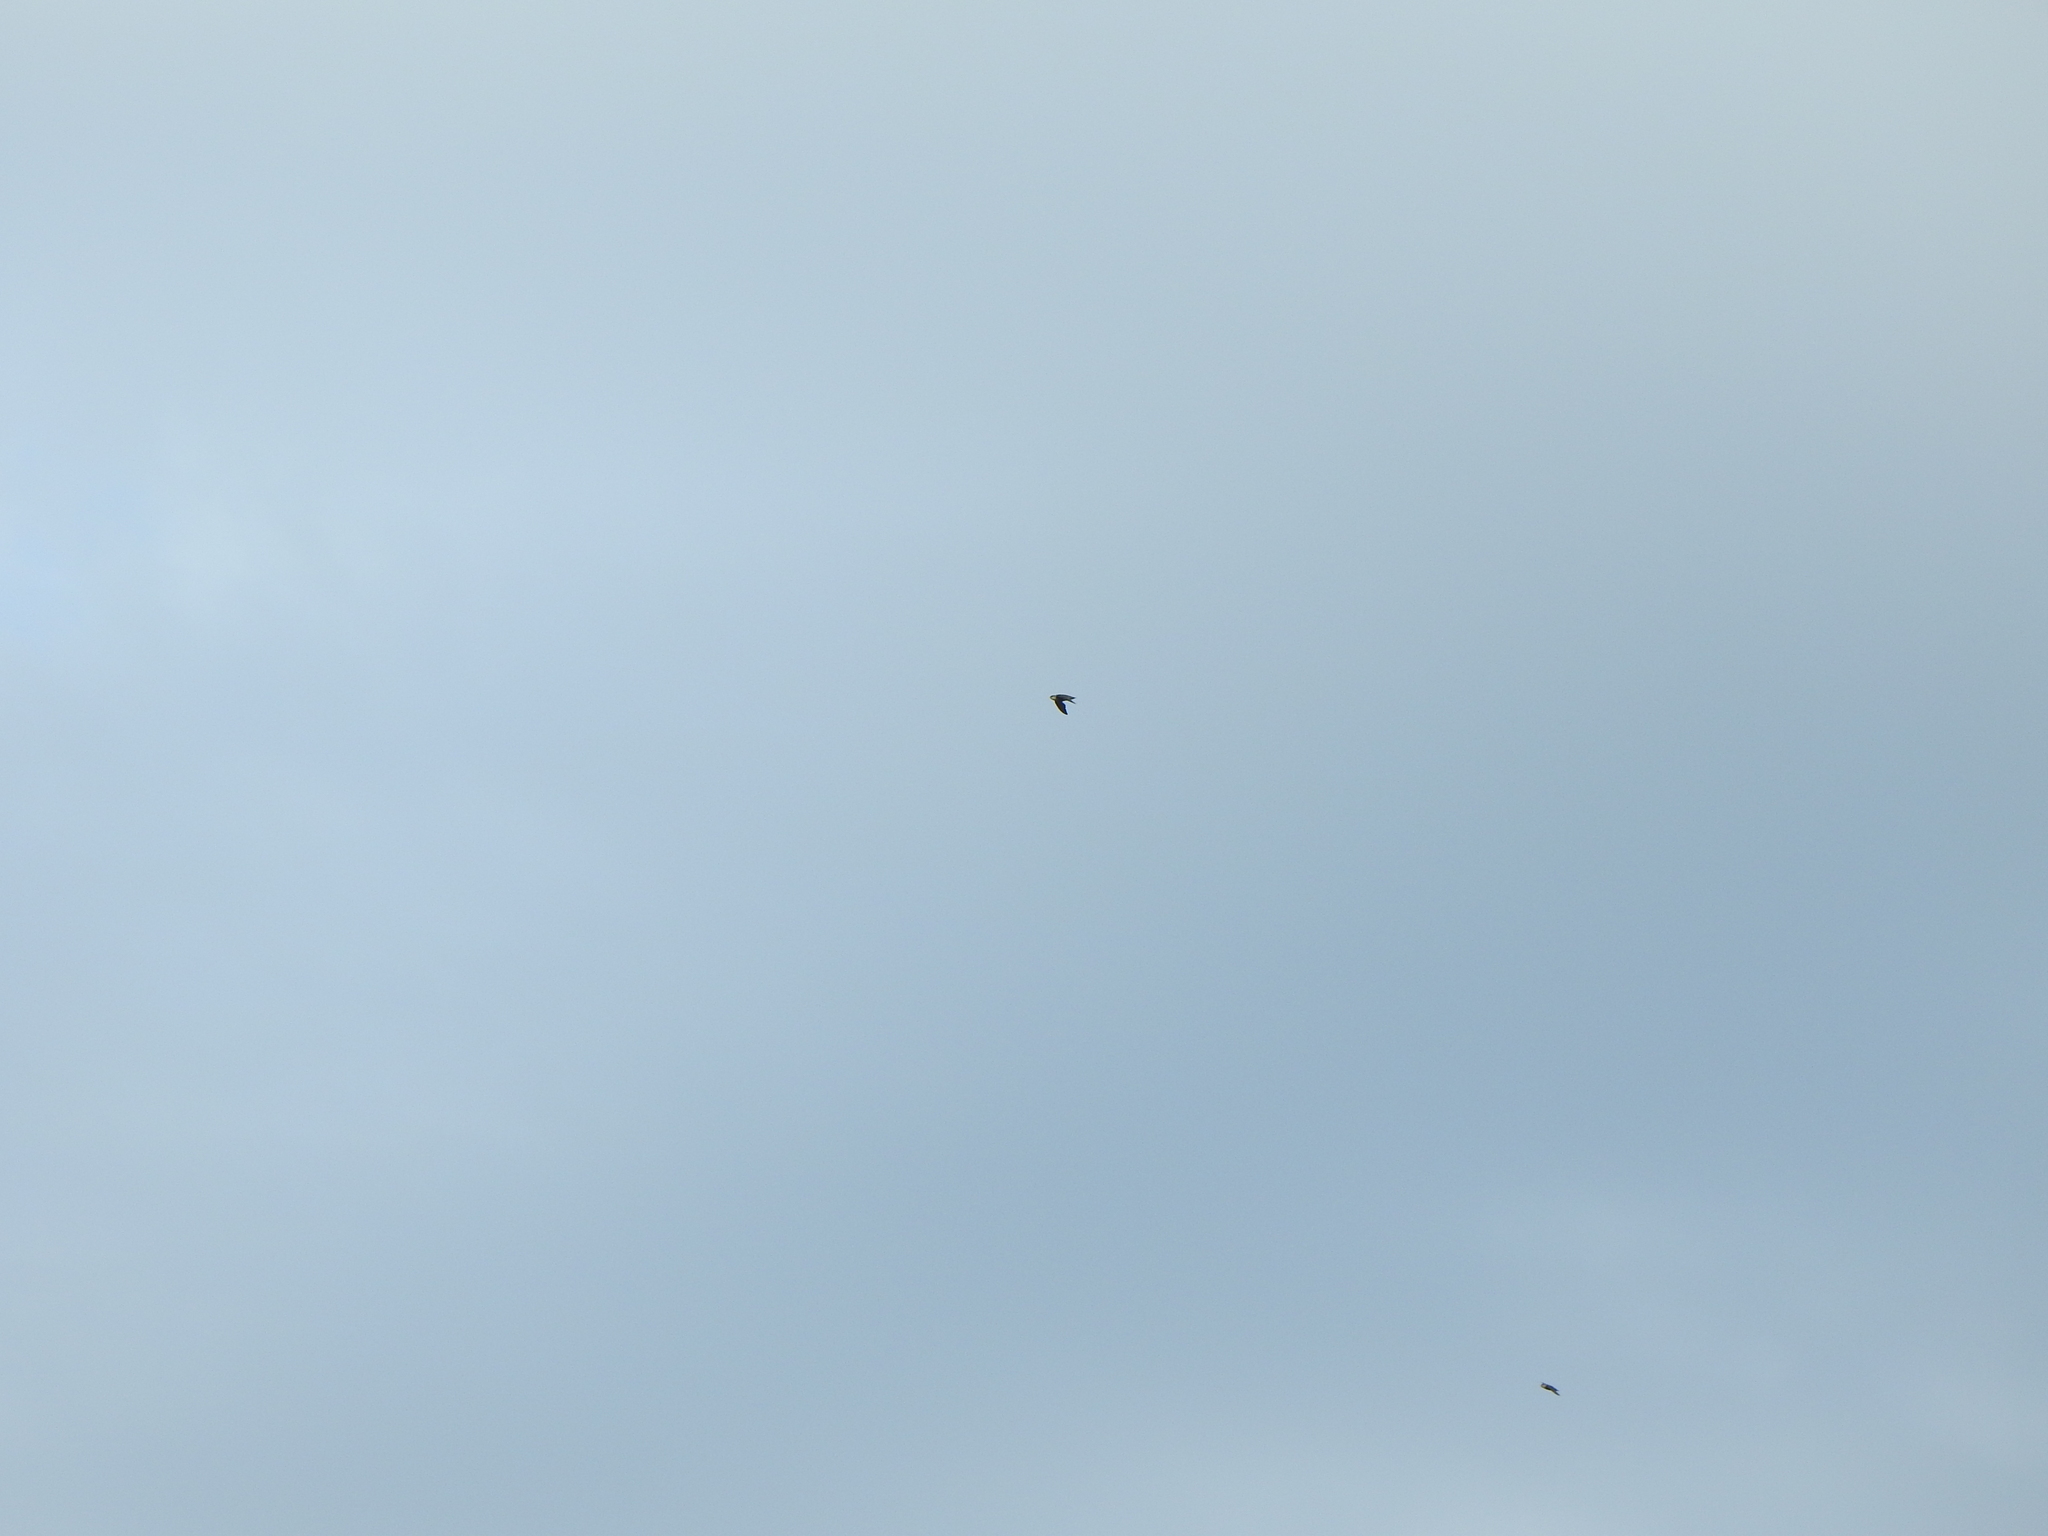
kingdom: Animalia
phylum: Chordata
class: Aves
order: Apodiformes
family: Apodidae
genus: Chaetura
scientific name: Chaetura pelagica
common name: Chimney swift
